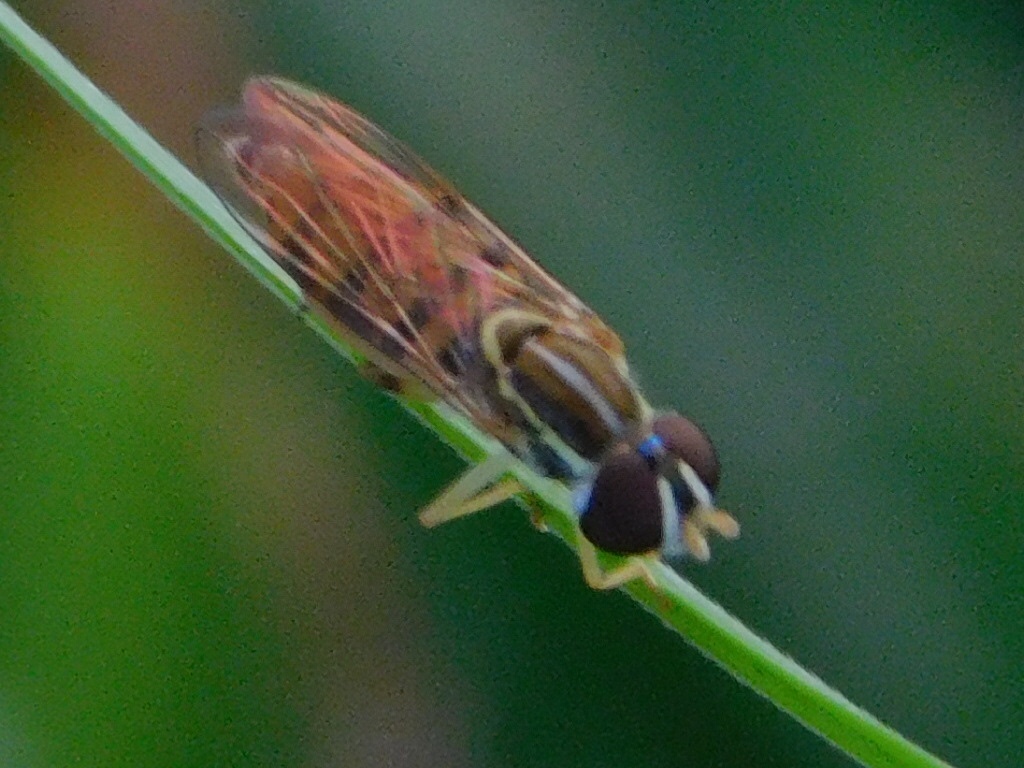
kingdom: Animalia
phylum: Arthropoda
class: Insecta
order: Diptera
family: Syrphidae
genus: Toxomerus
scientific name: Toxomerus floralis
